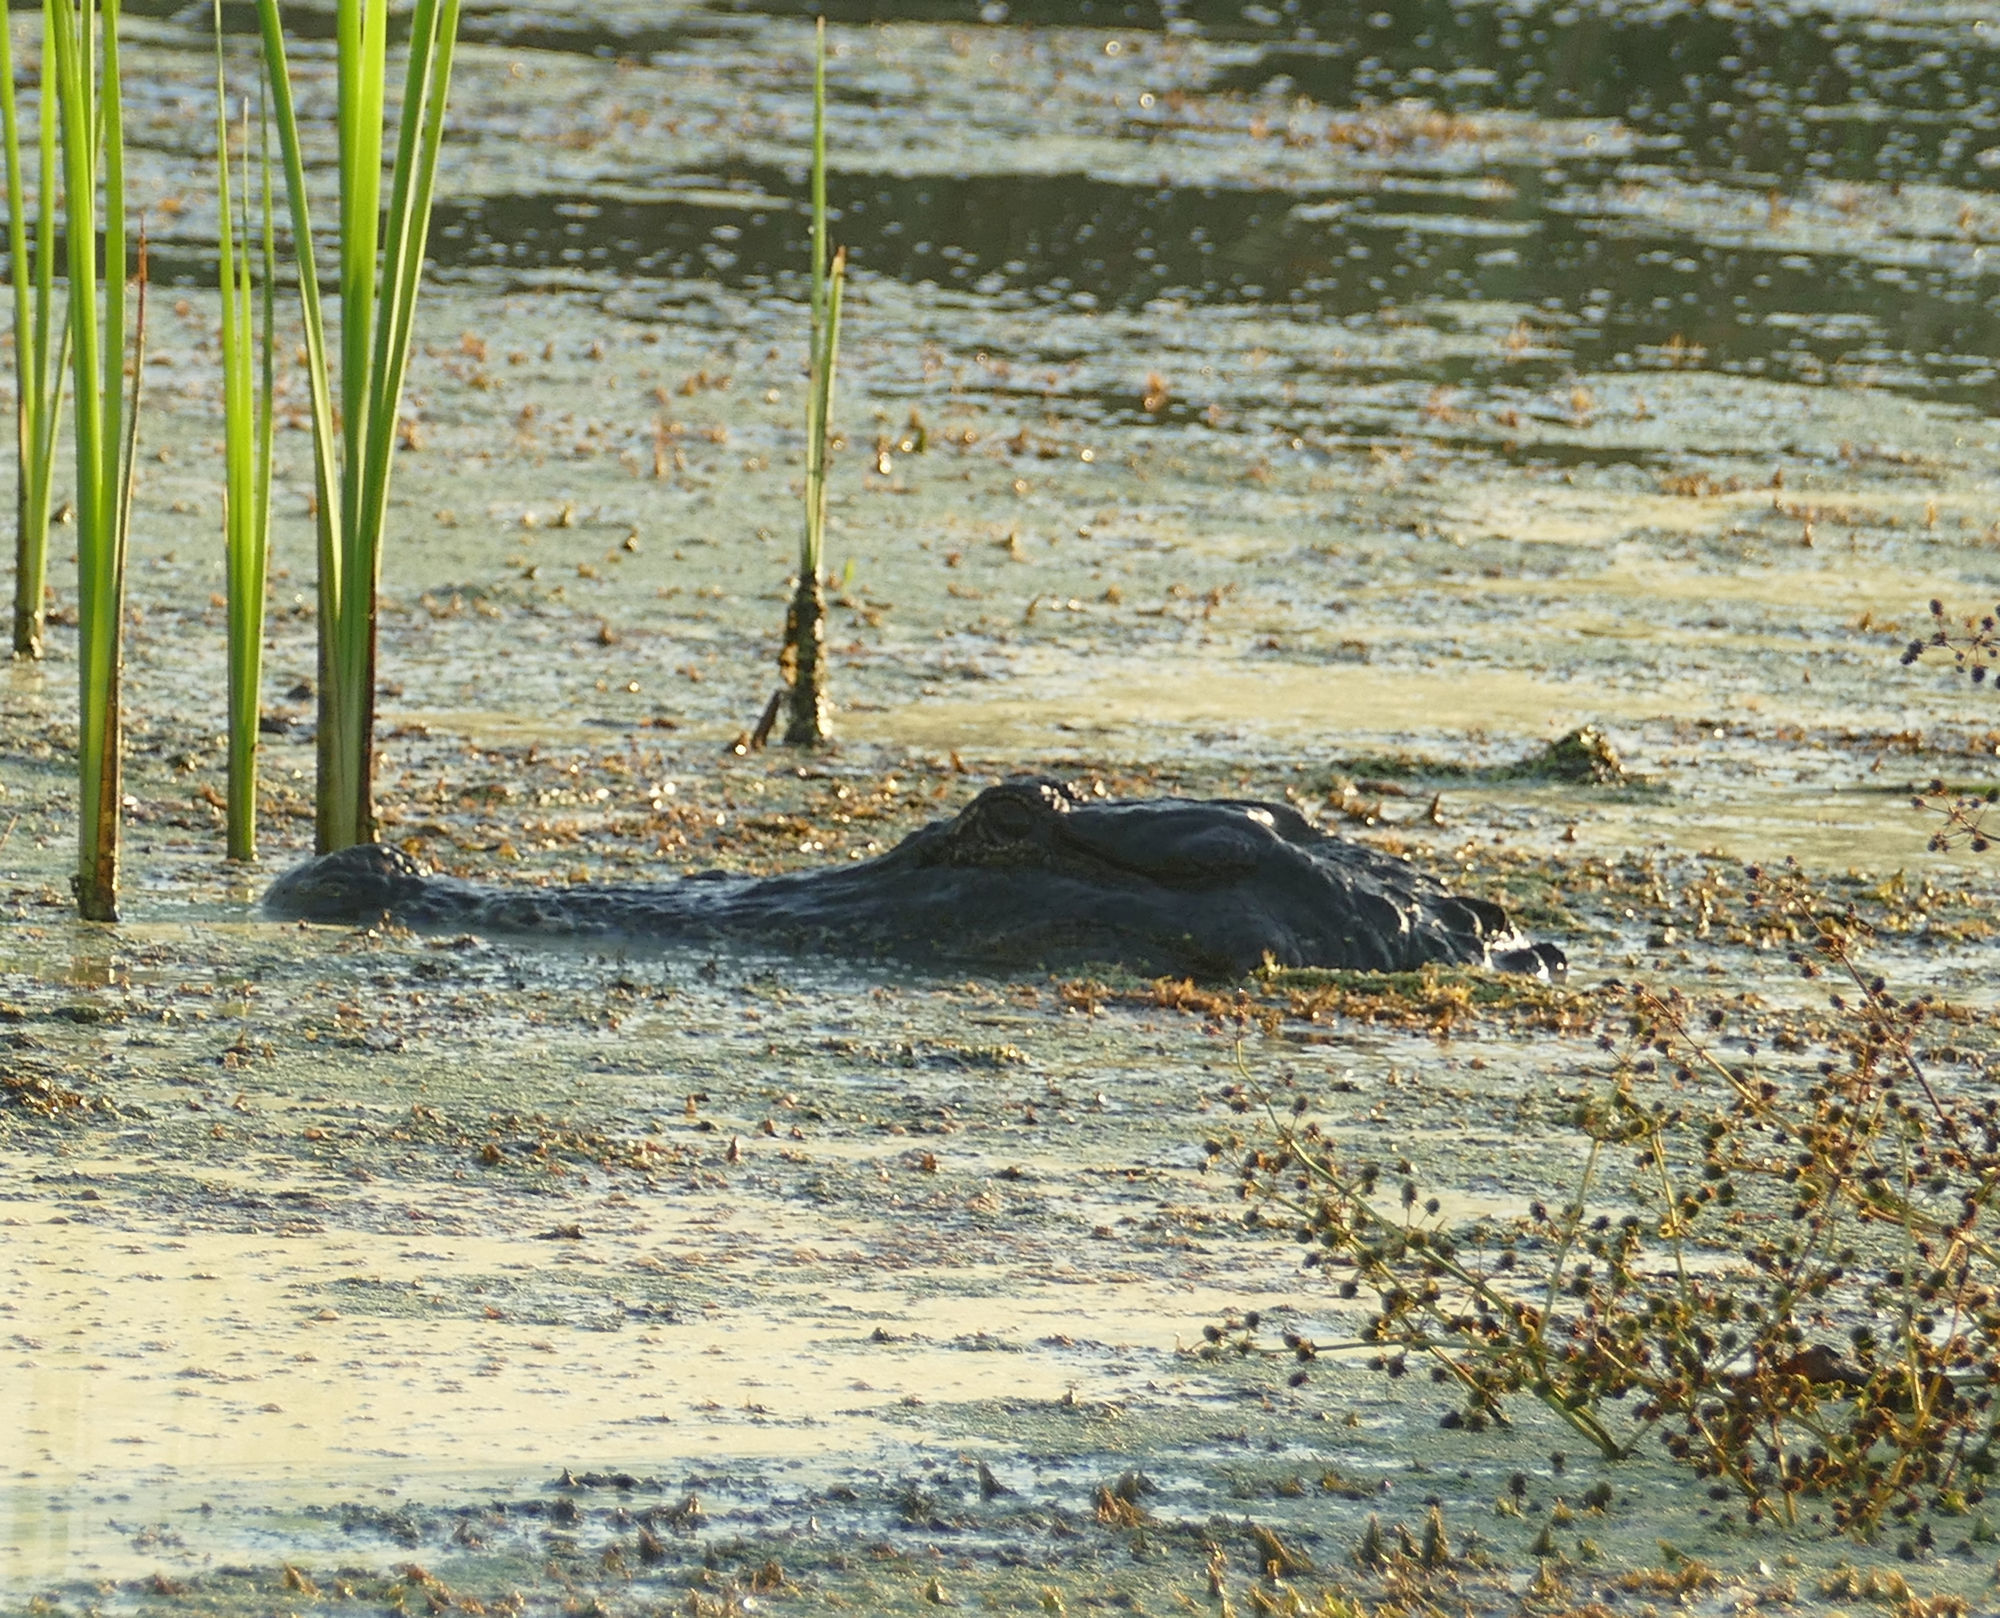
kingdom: Animalia
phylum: Chordata
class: Crocodylia
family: Alligatoridae
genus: Alligator
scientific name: Alligator mississippiensis
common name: American alligator
